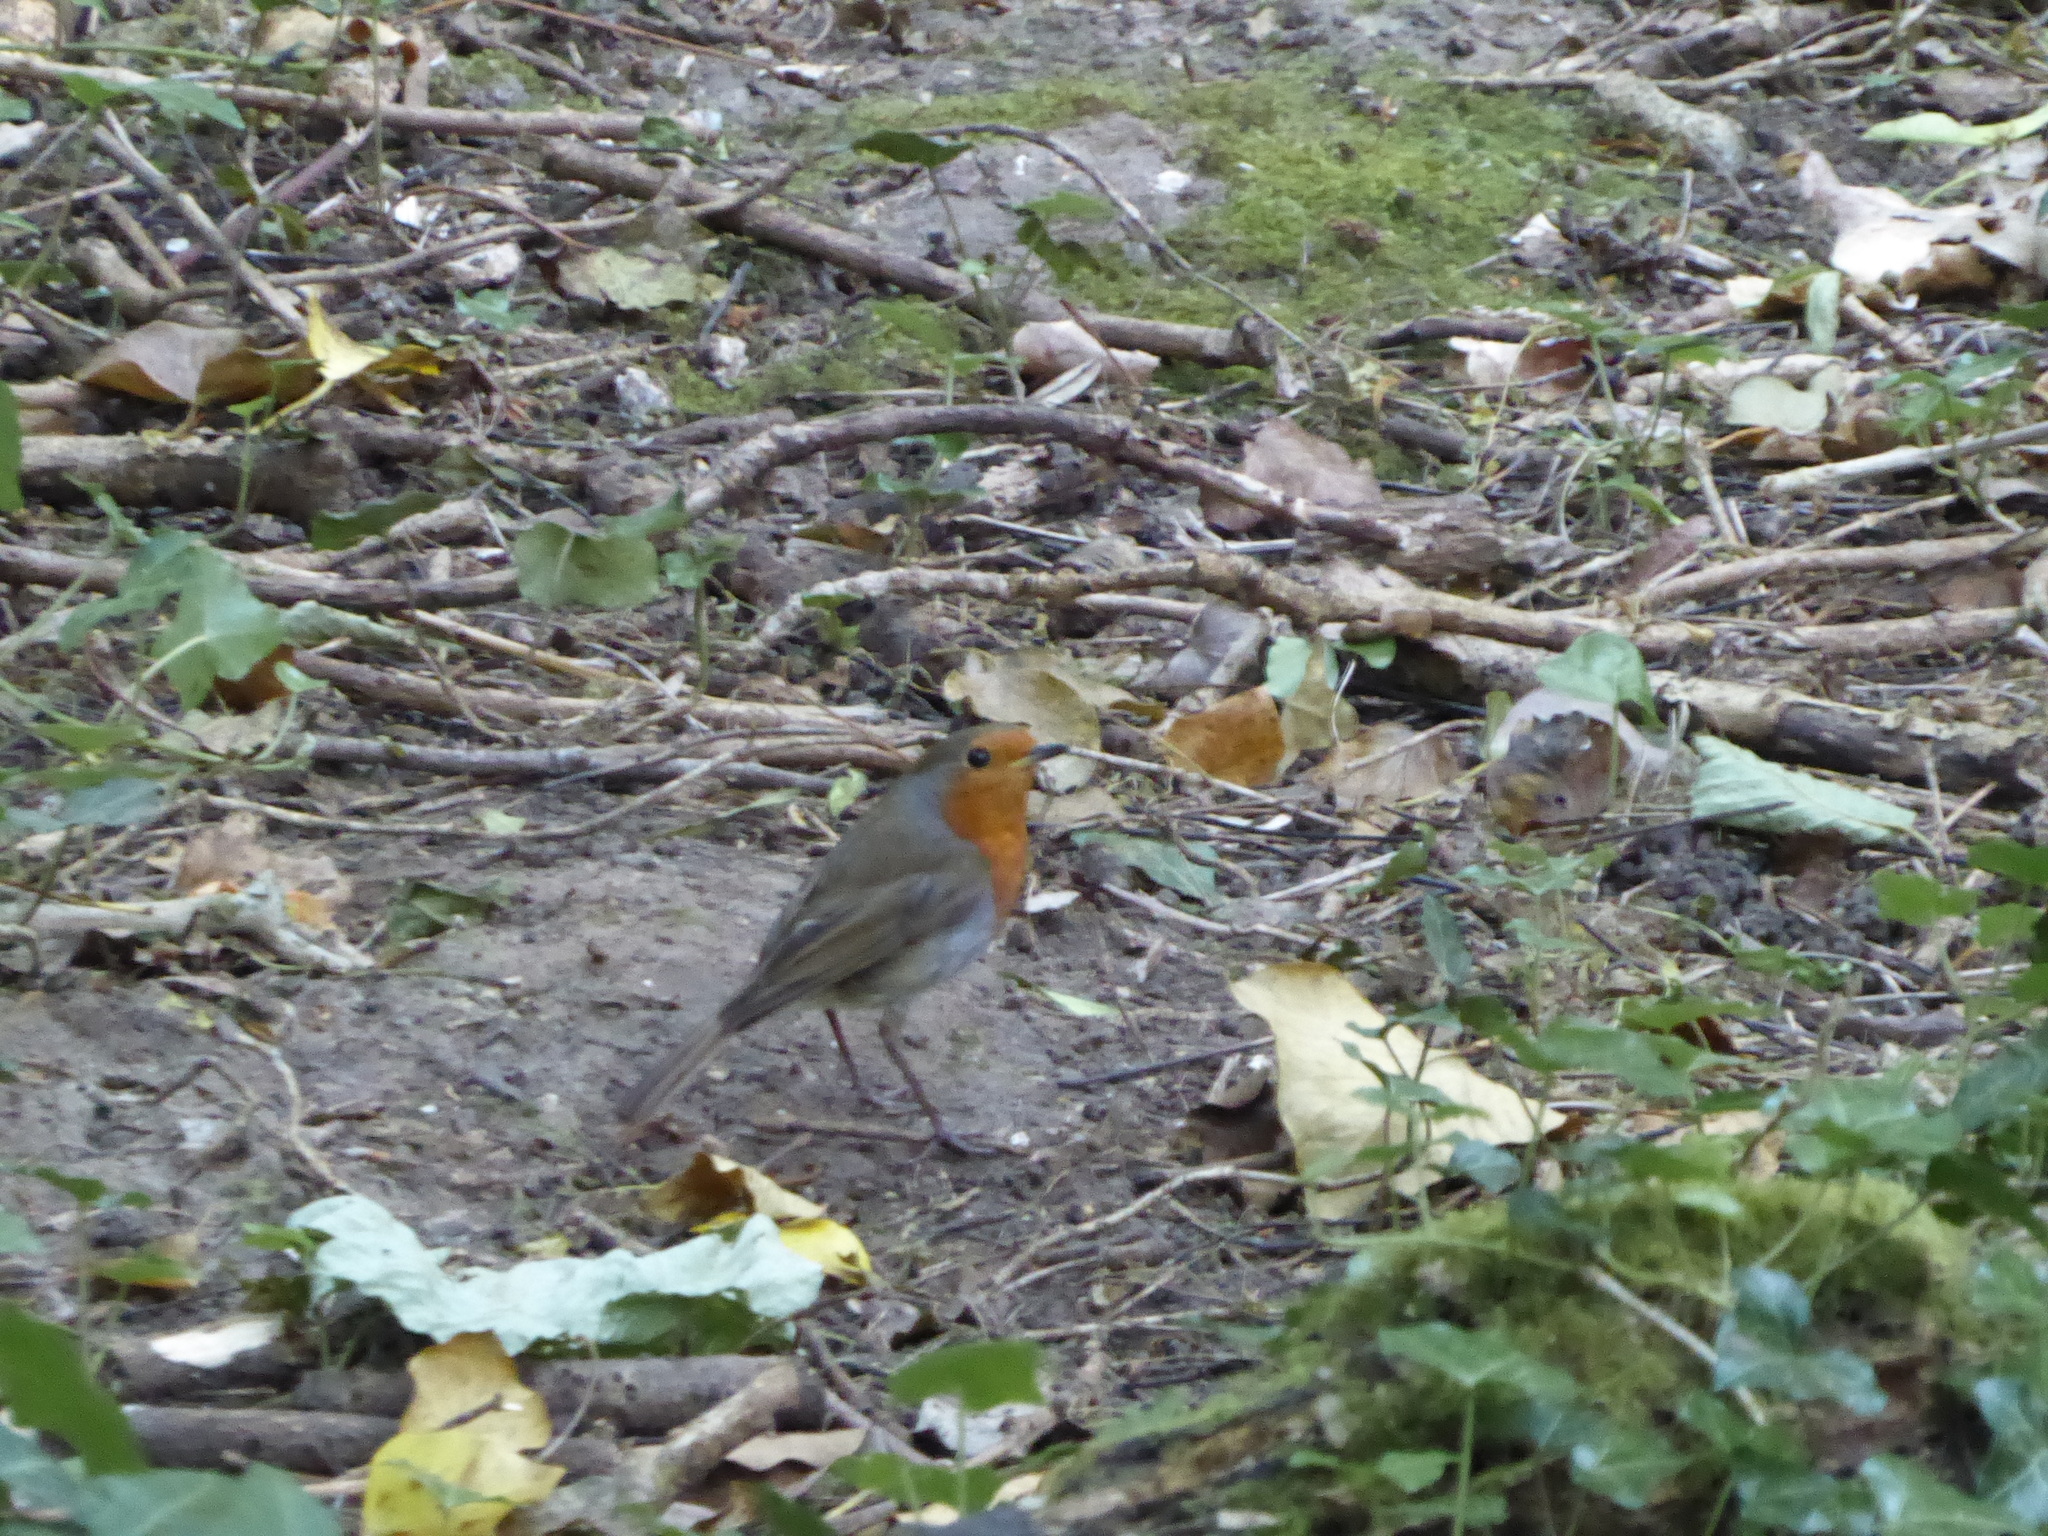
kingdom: Animalia
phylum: Chordata
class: Aves
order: Passeriformes
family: Muscicapidae
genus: Erithacus
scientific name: Erithacus rubecula
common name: European robin
